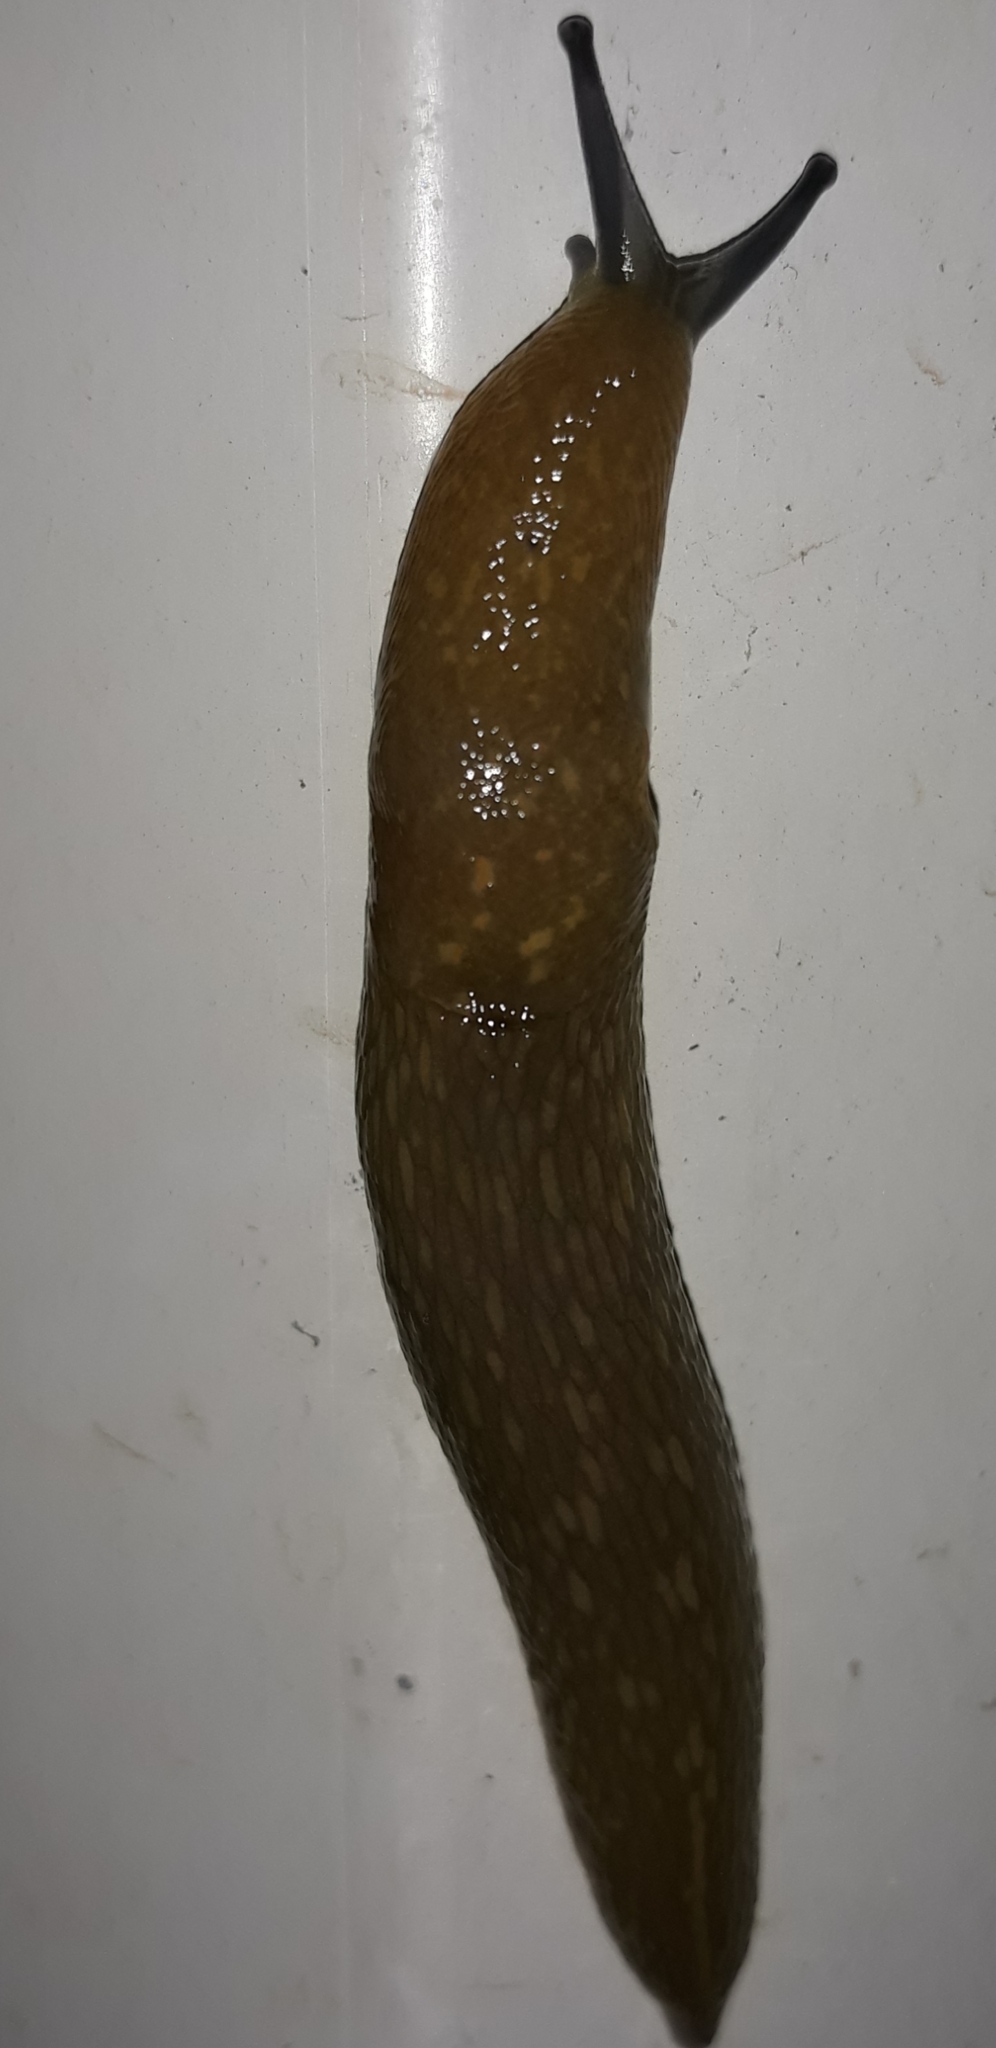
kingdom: Animalia
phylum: Mollusca
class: Gastropoda
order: Stylommatophora
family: Limacidae
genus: Limacus
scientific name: Limacus flavus
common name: Yellow gardenslug
